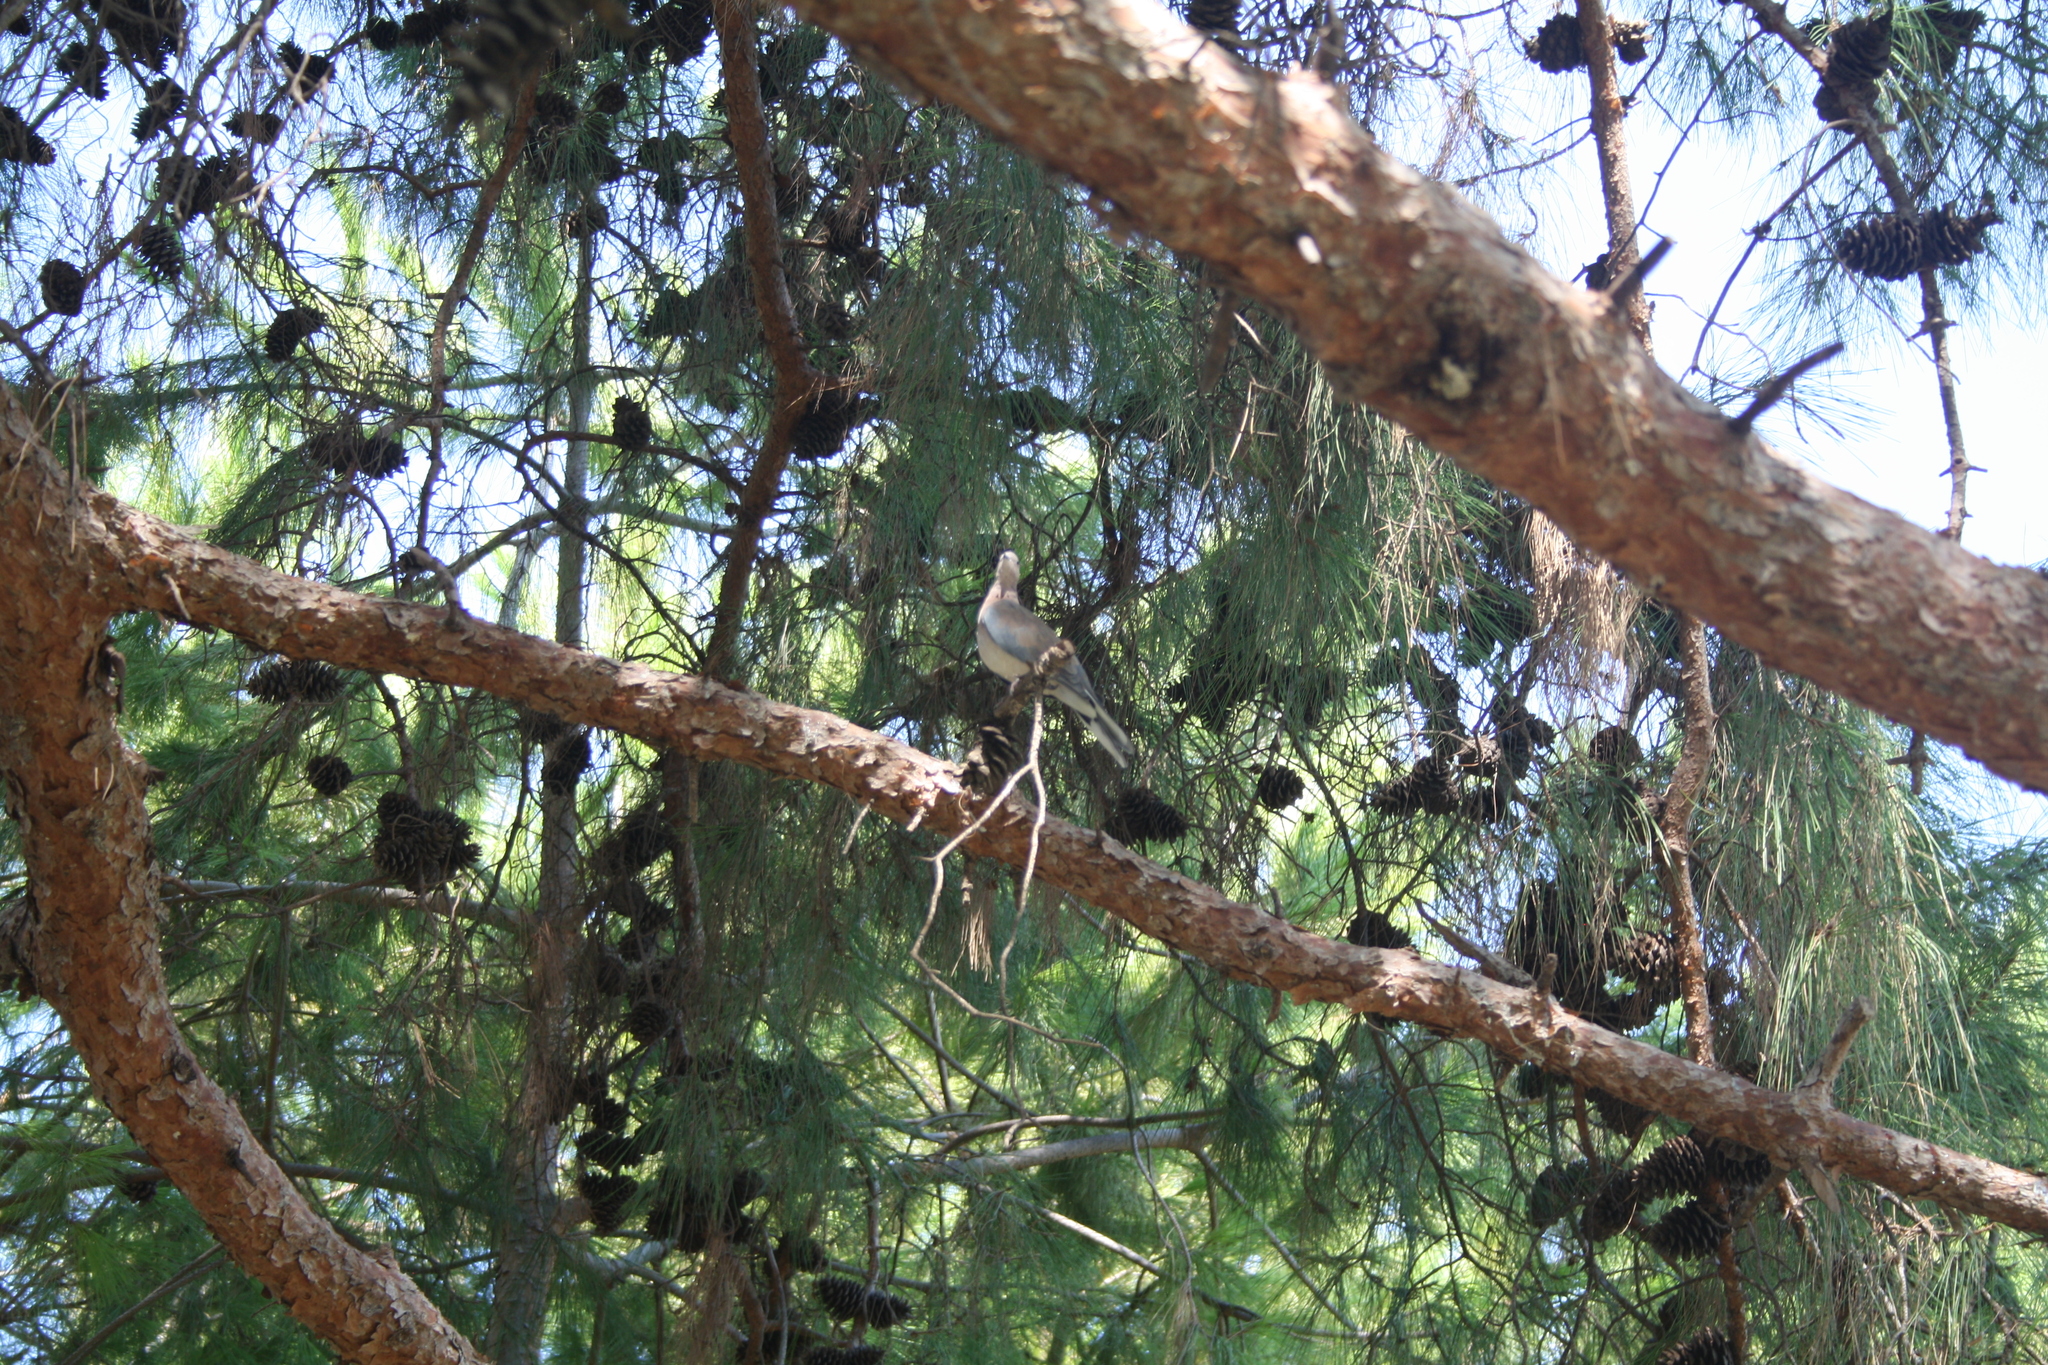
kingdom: Animalia
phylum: Chordata
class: Aves
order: Columbiformes
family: Columbidae
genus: Spilopelia
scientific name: Spilopelia senegalensis
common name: Laughing dove
